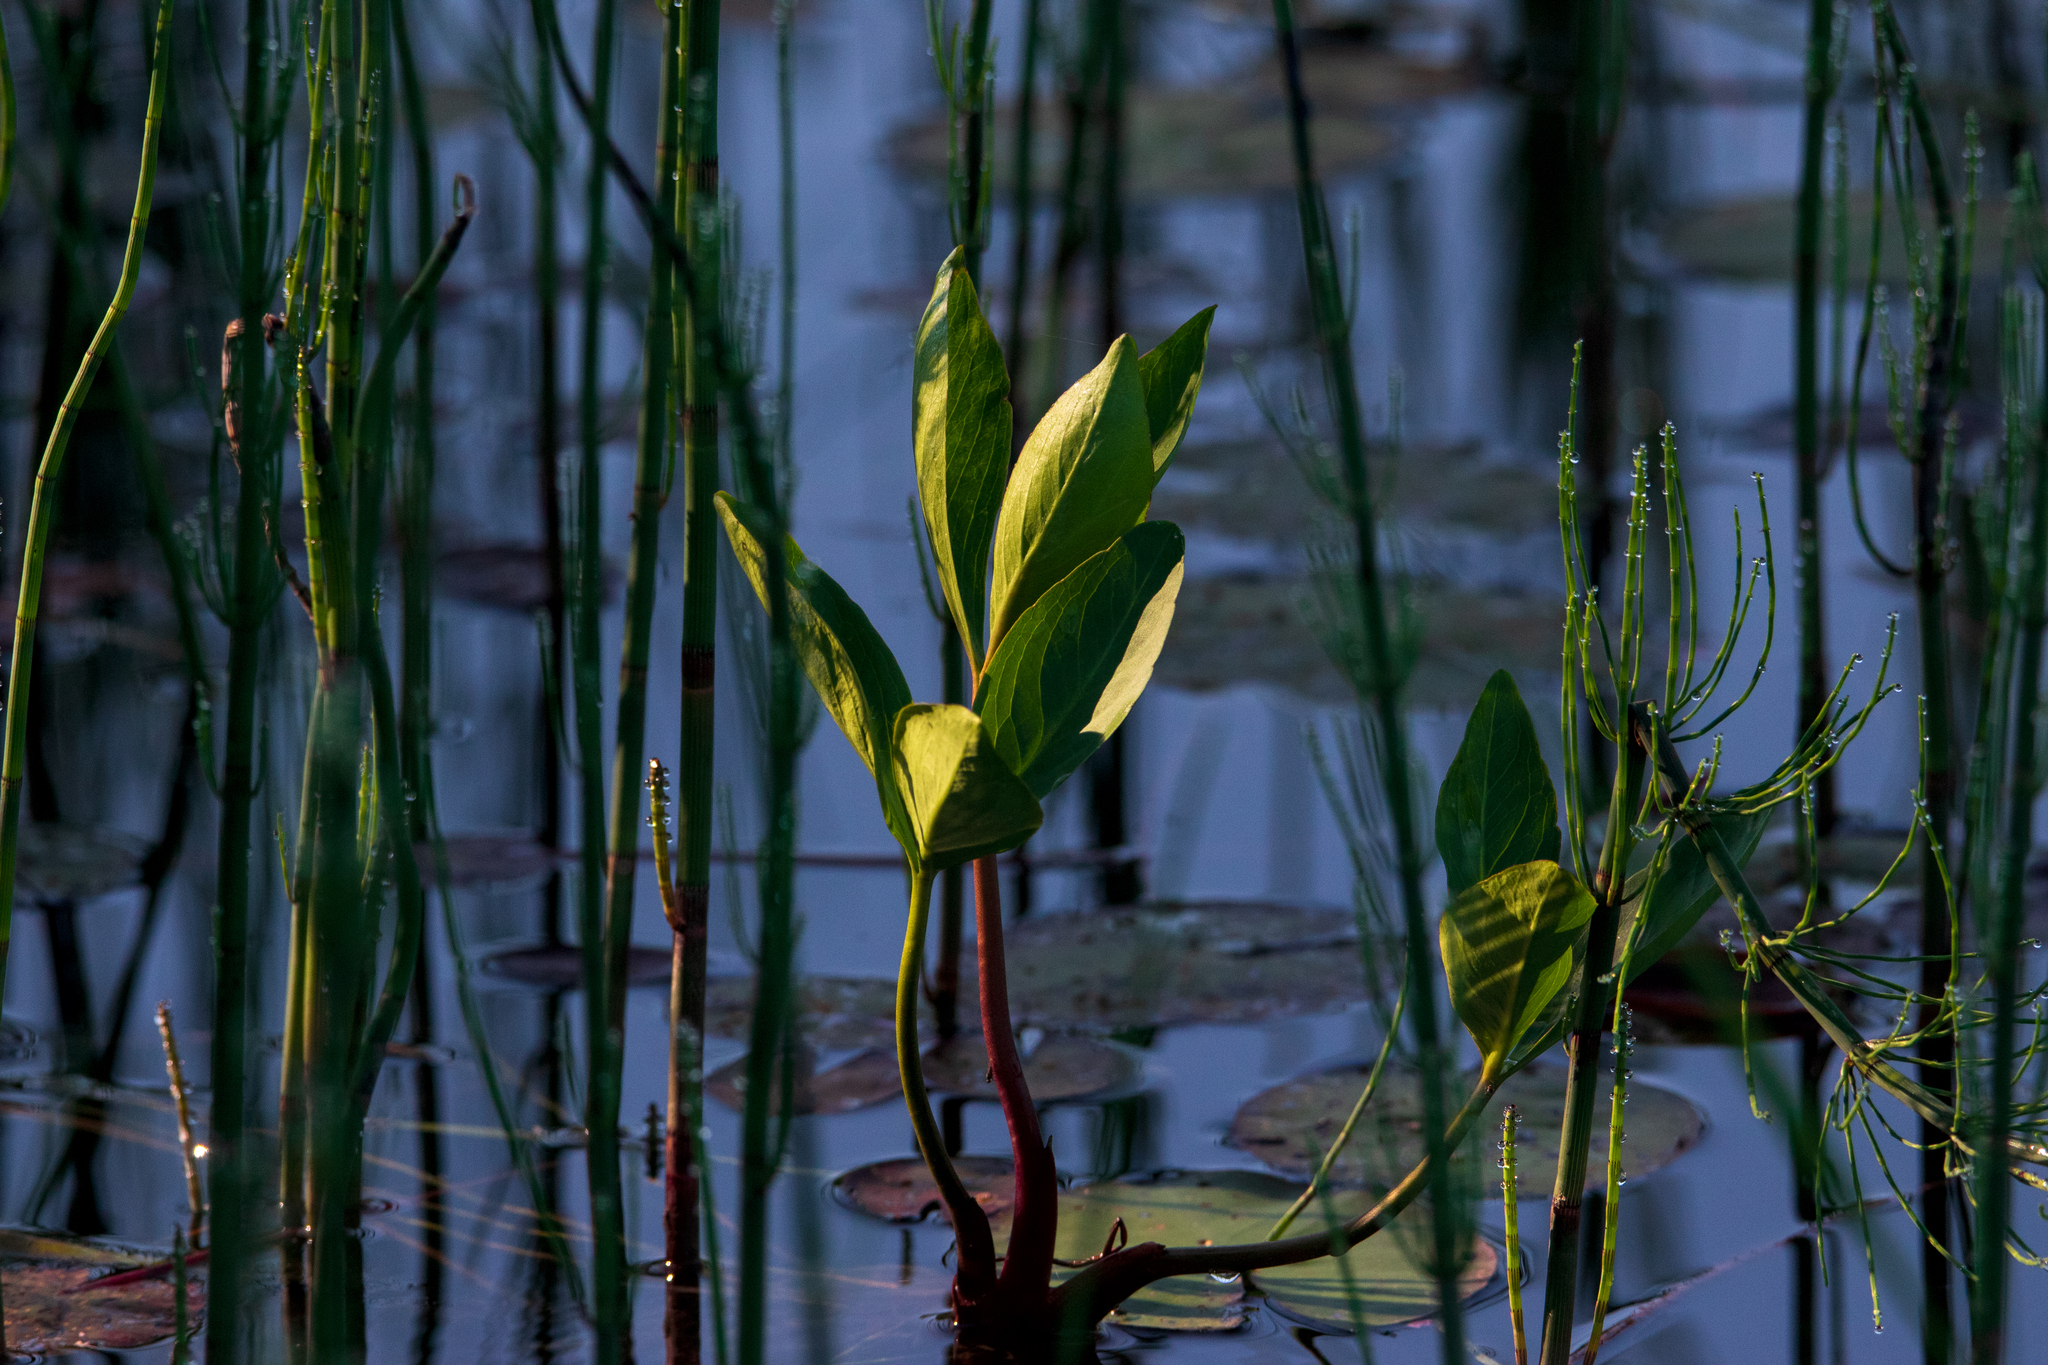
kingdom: Plantae
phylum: Tracheophyta
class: Magnoliopsida
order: Asterales
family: Menyanthaceae
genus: Menyanthes
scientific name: Menyanthes trifoliata
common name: Bogbean
